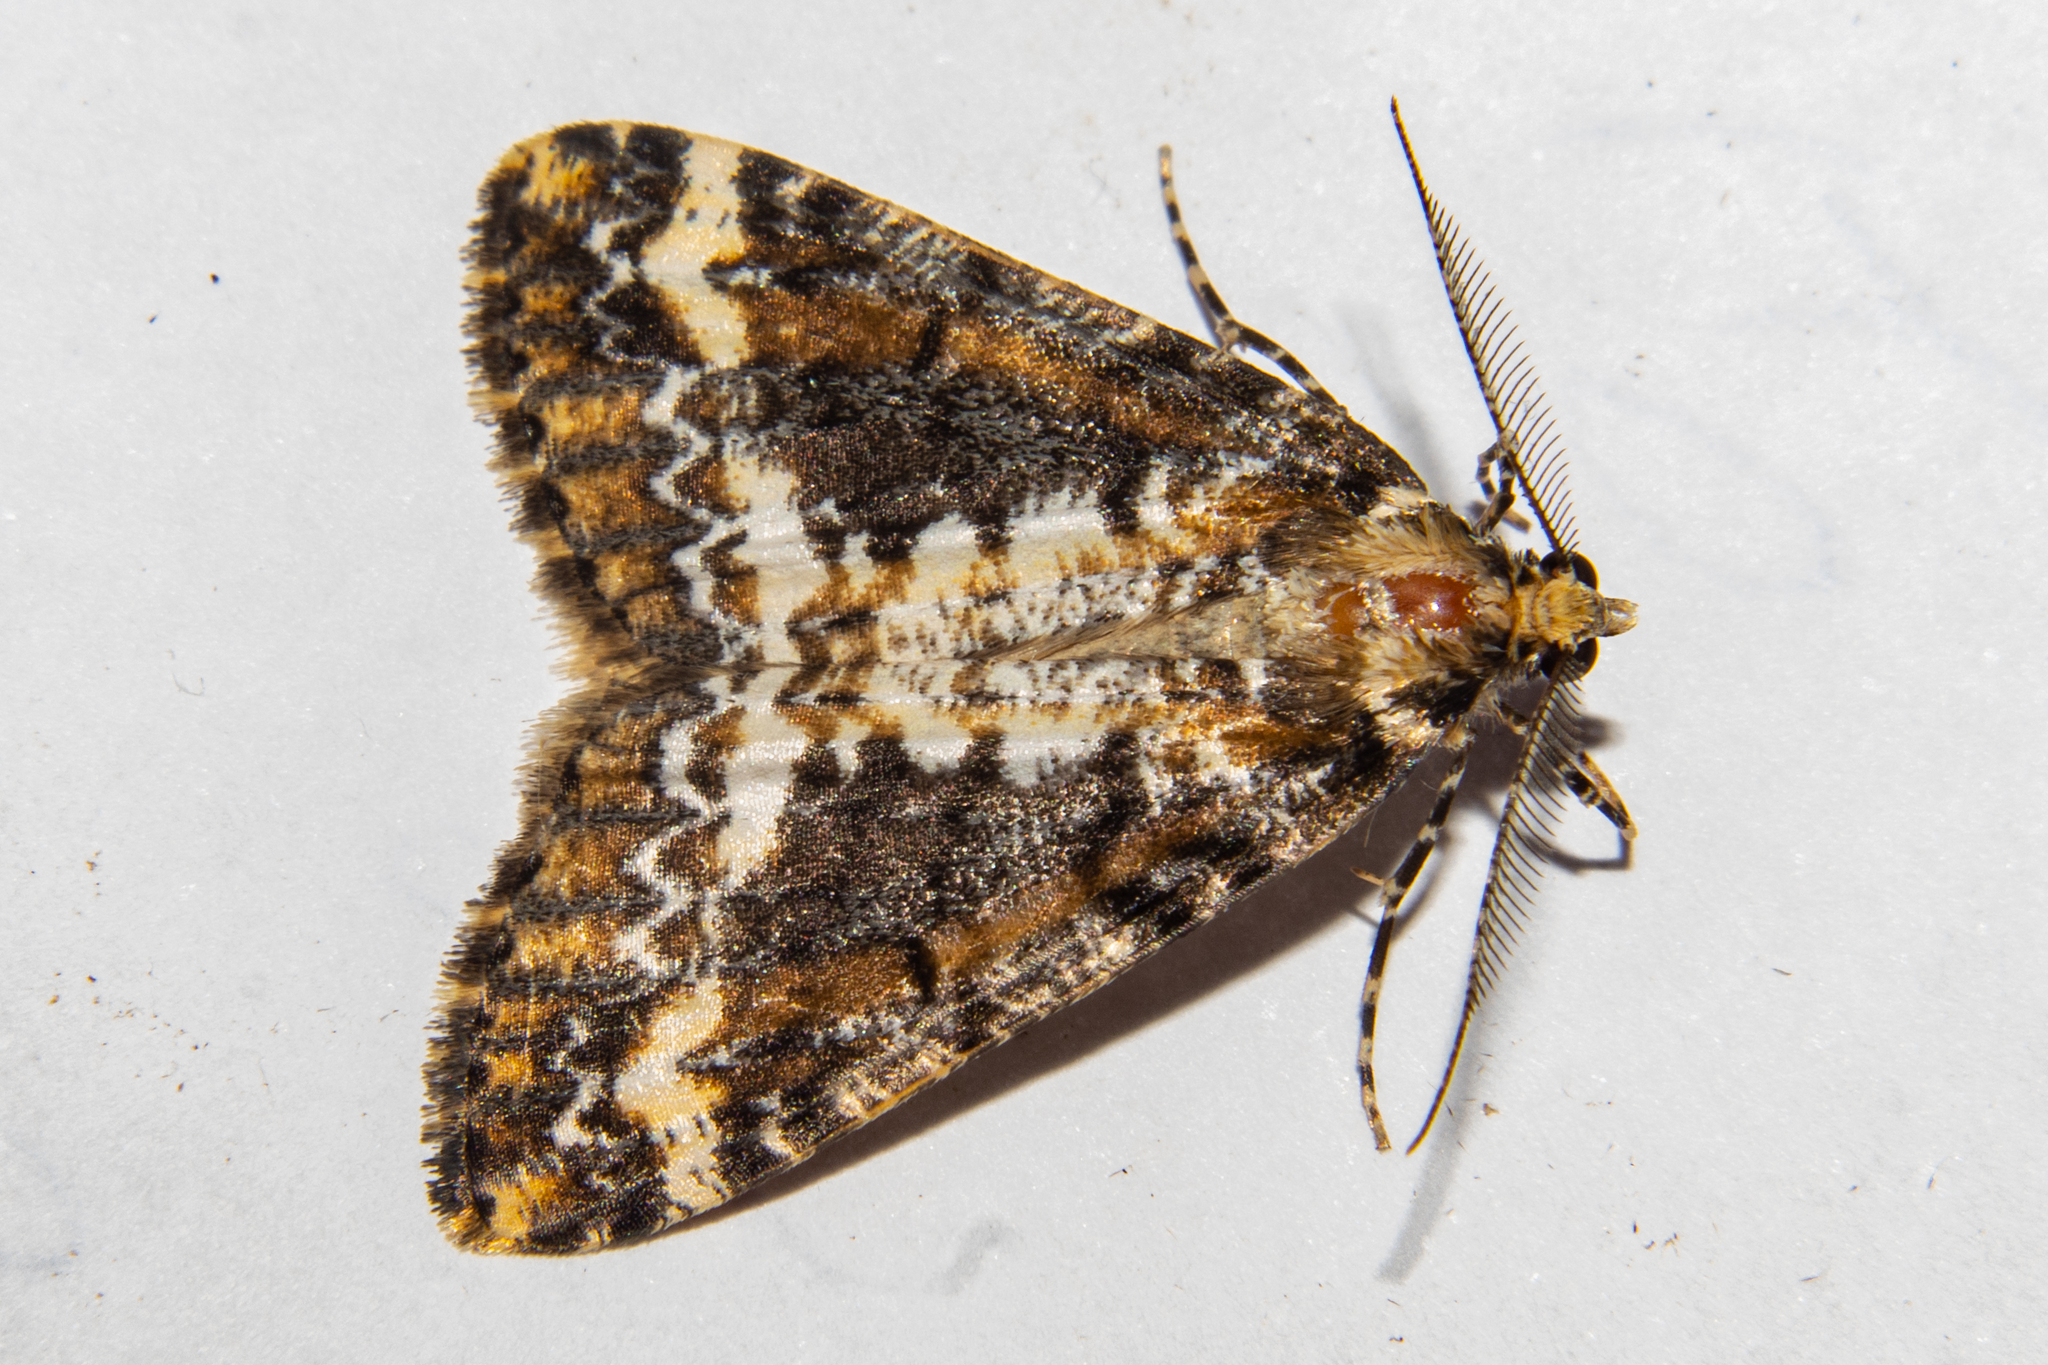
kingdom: Animalia
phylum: Arthropoda
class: Insecta
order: Lepidoptera
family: Geometridae
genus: Pseudocoremia
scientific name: Pseudocoremia leucelaea
